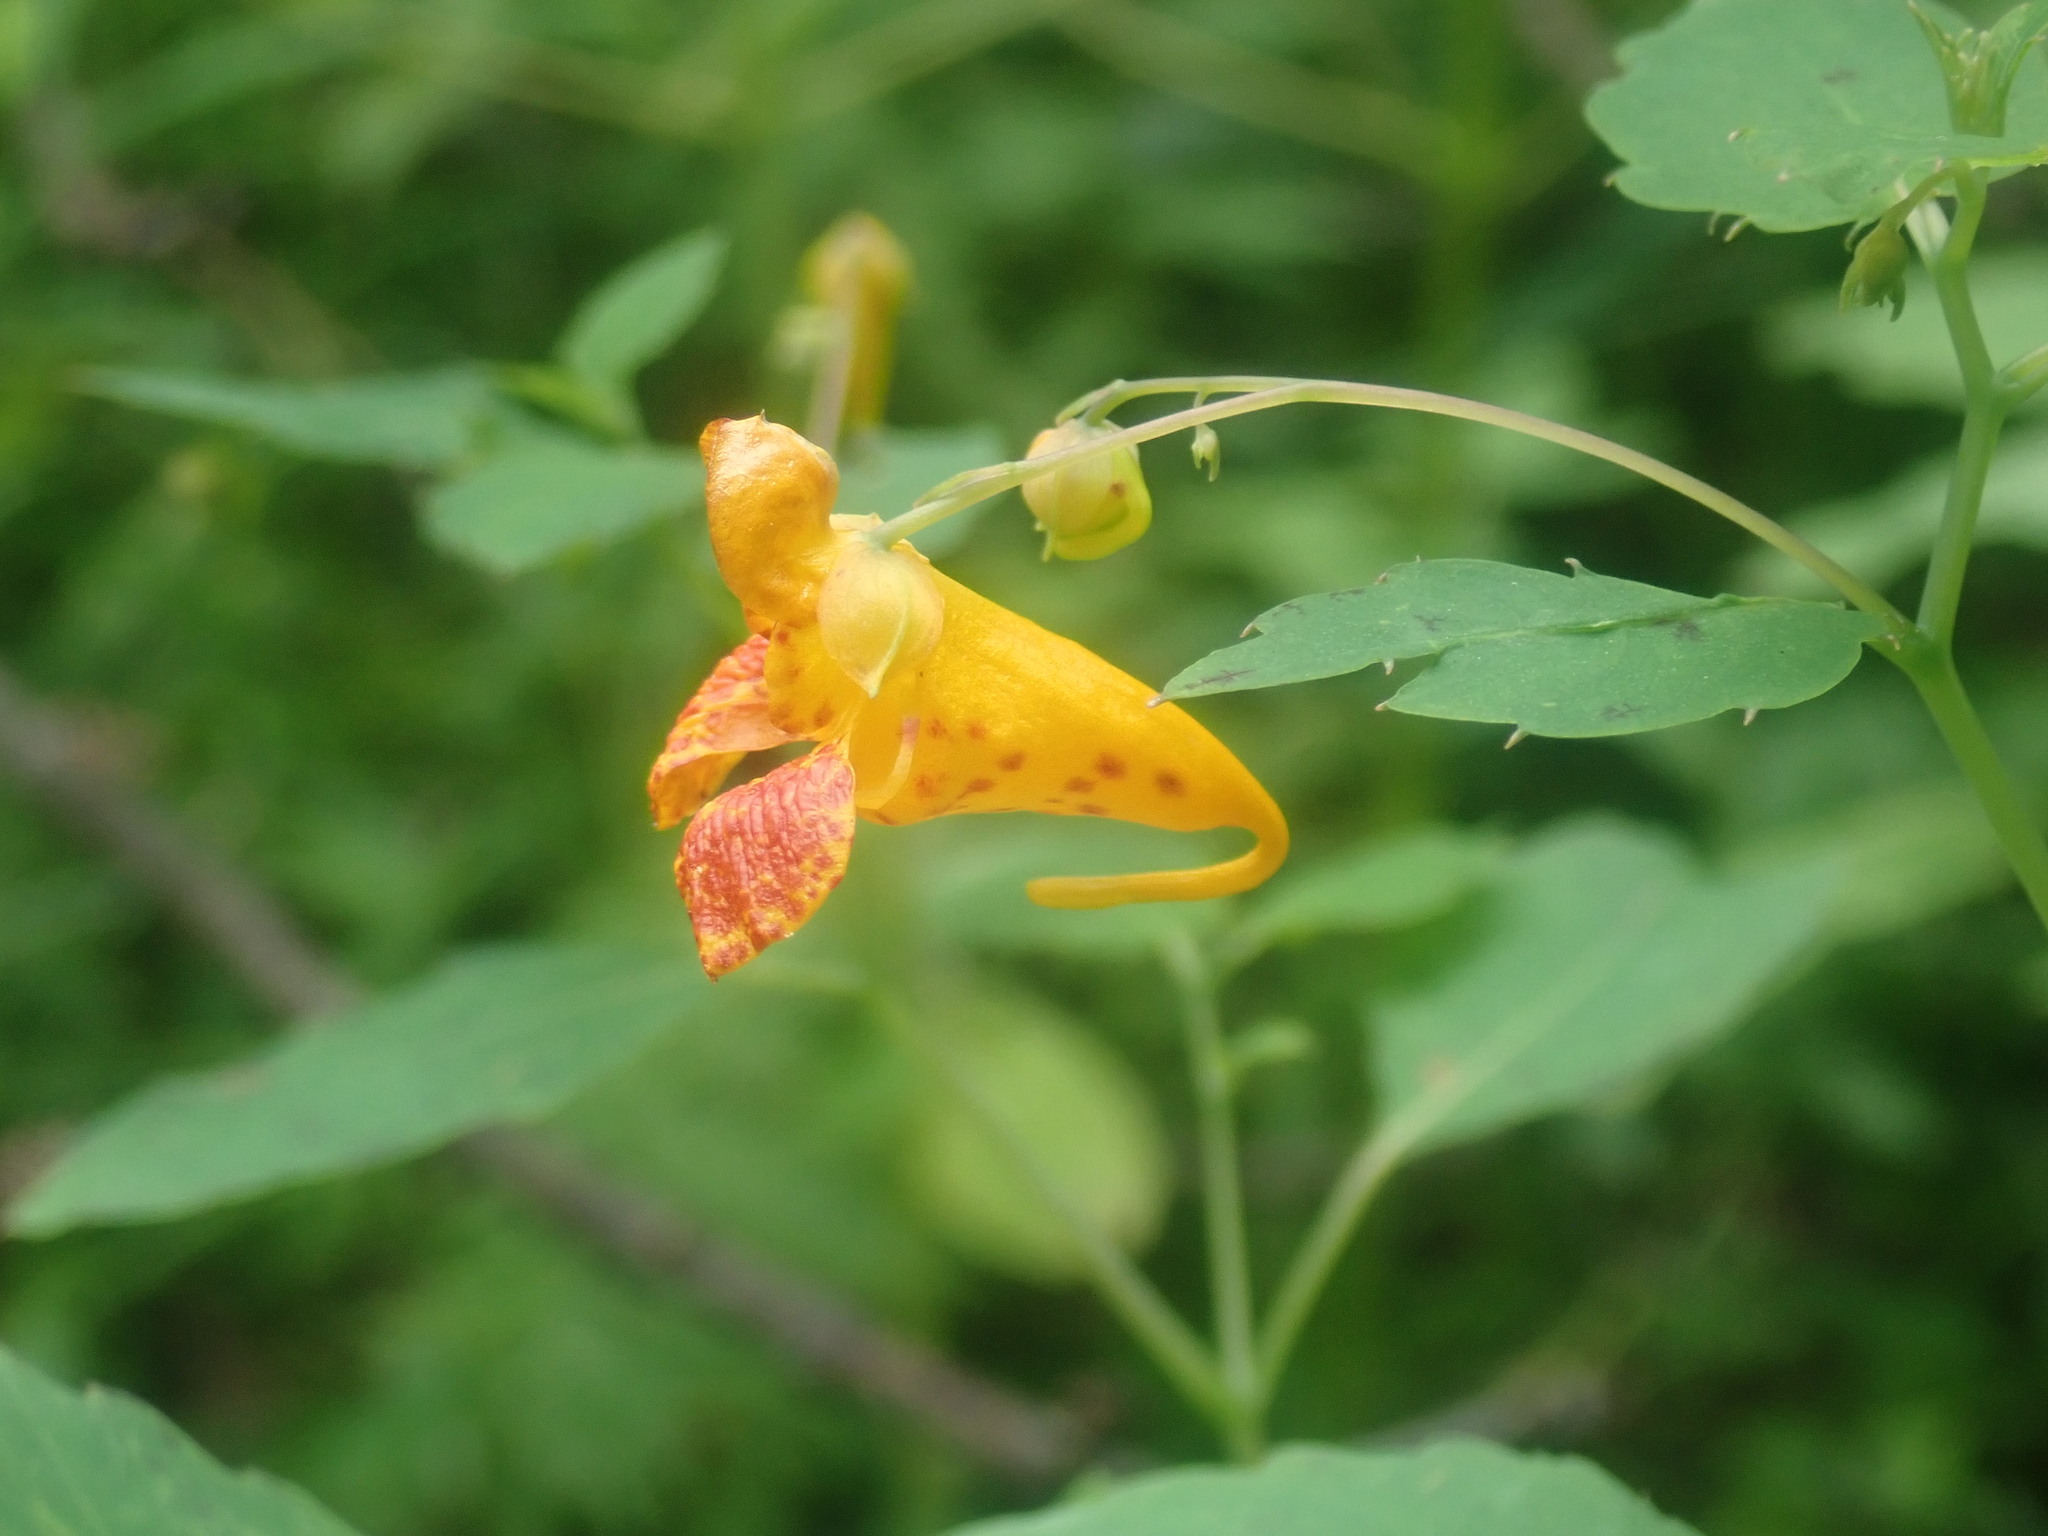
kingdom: Plantae
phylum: Tracheophyta
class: Magnoliopsida
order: Ericales
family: Balsaminaceae
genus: Impatiens
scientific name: Impatiens capensis
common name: Orange balsam
